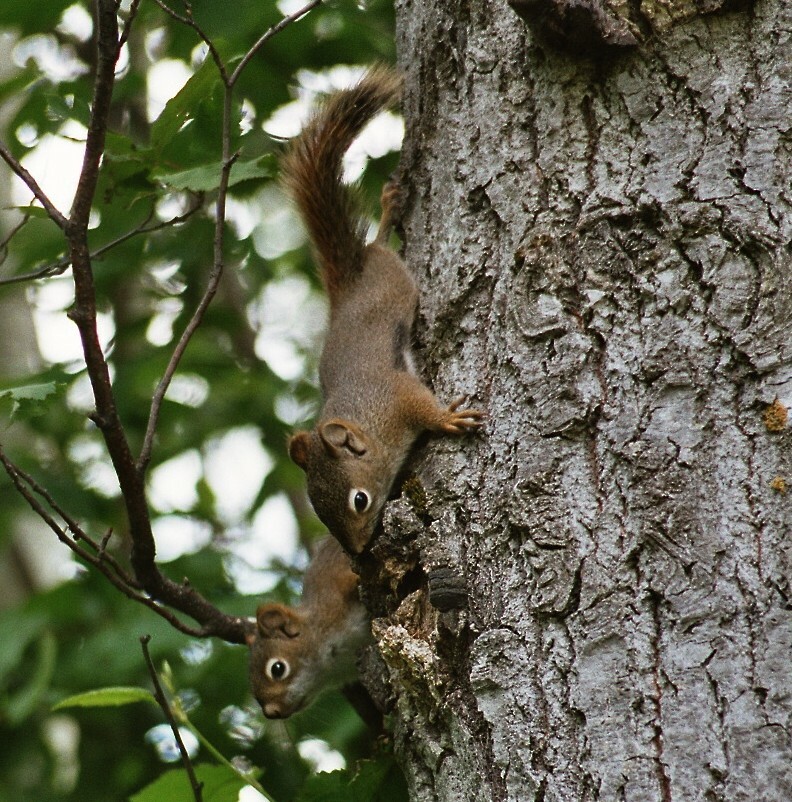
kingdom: Animalia
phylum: Chordata
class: Mammalia
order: Rodentia
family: Sciuridae
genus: Tamiasciurus
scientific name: Tamiasciurus hudsonicus
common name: Red squirrel
